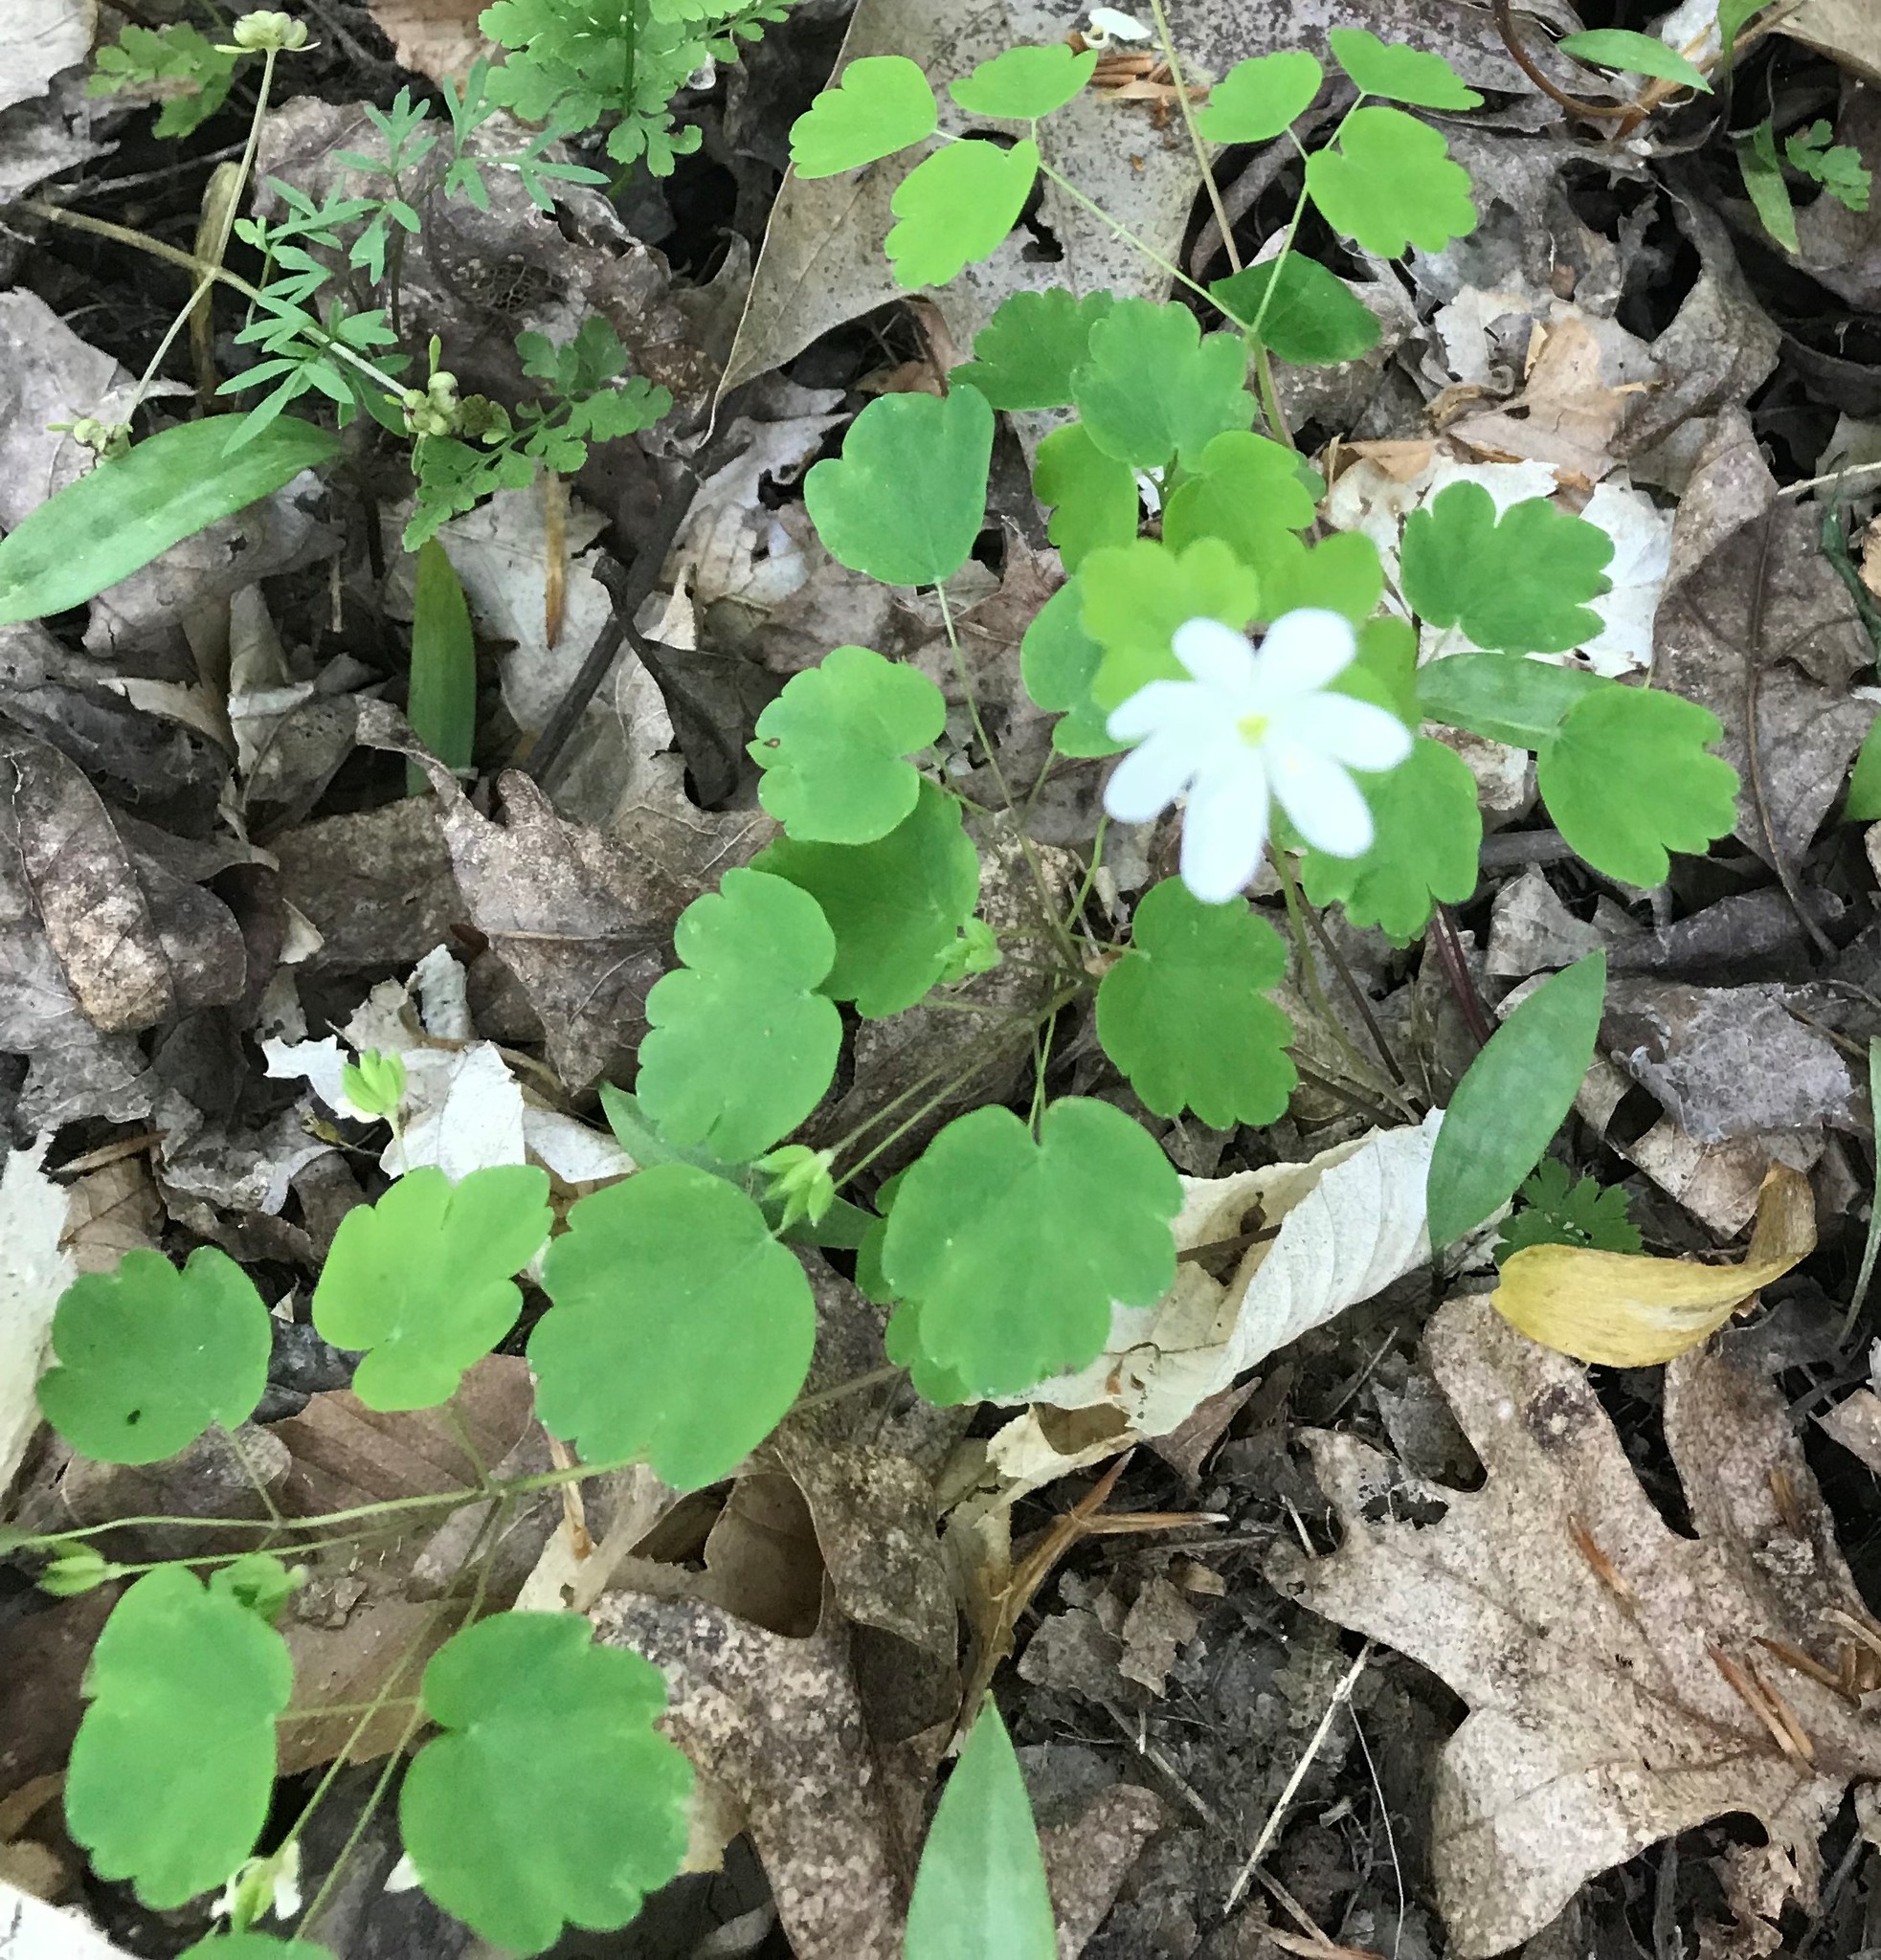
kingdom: Plantae
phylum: Tracheophyta
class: Magnoliopsida
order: Ranunculales
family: Ranunculaceae
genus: Thalictrum
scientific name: Thalictrum thalictroides
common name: Rue-anemone
